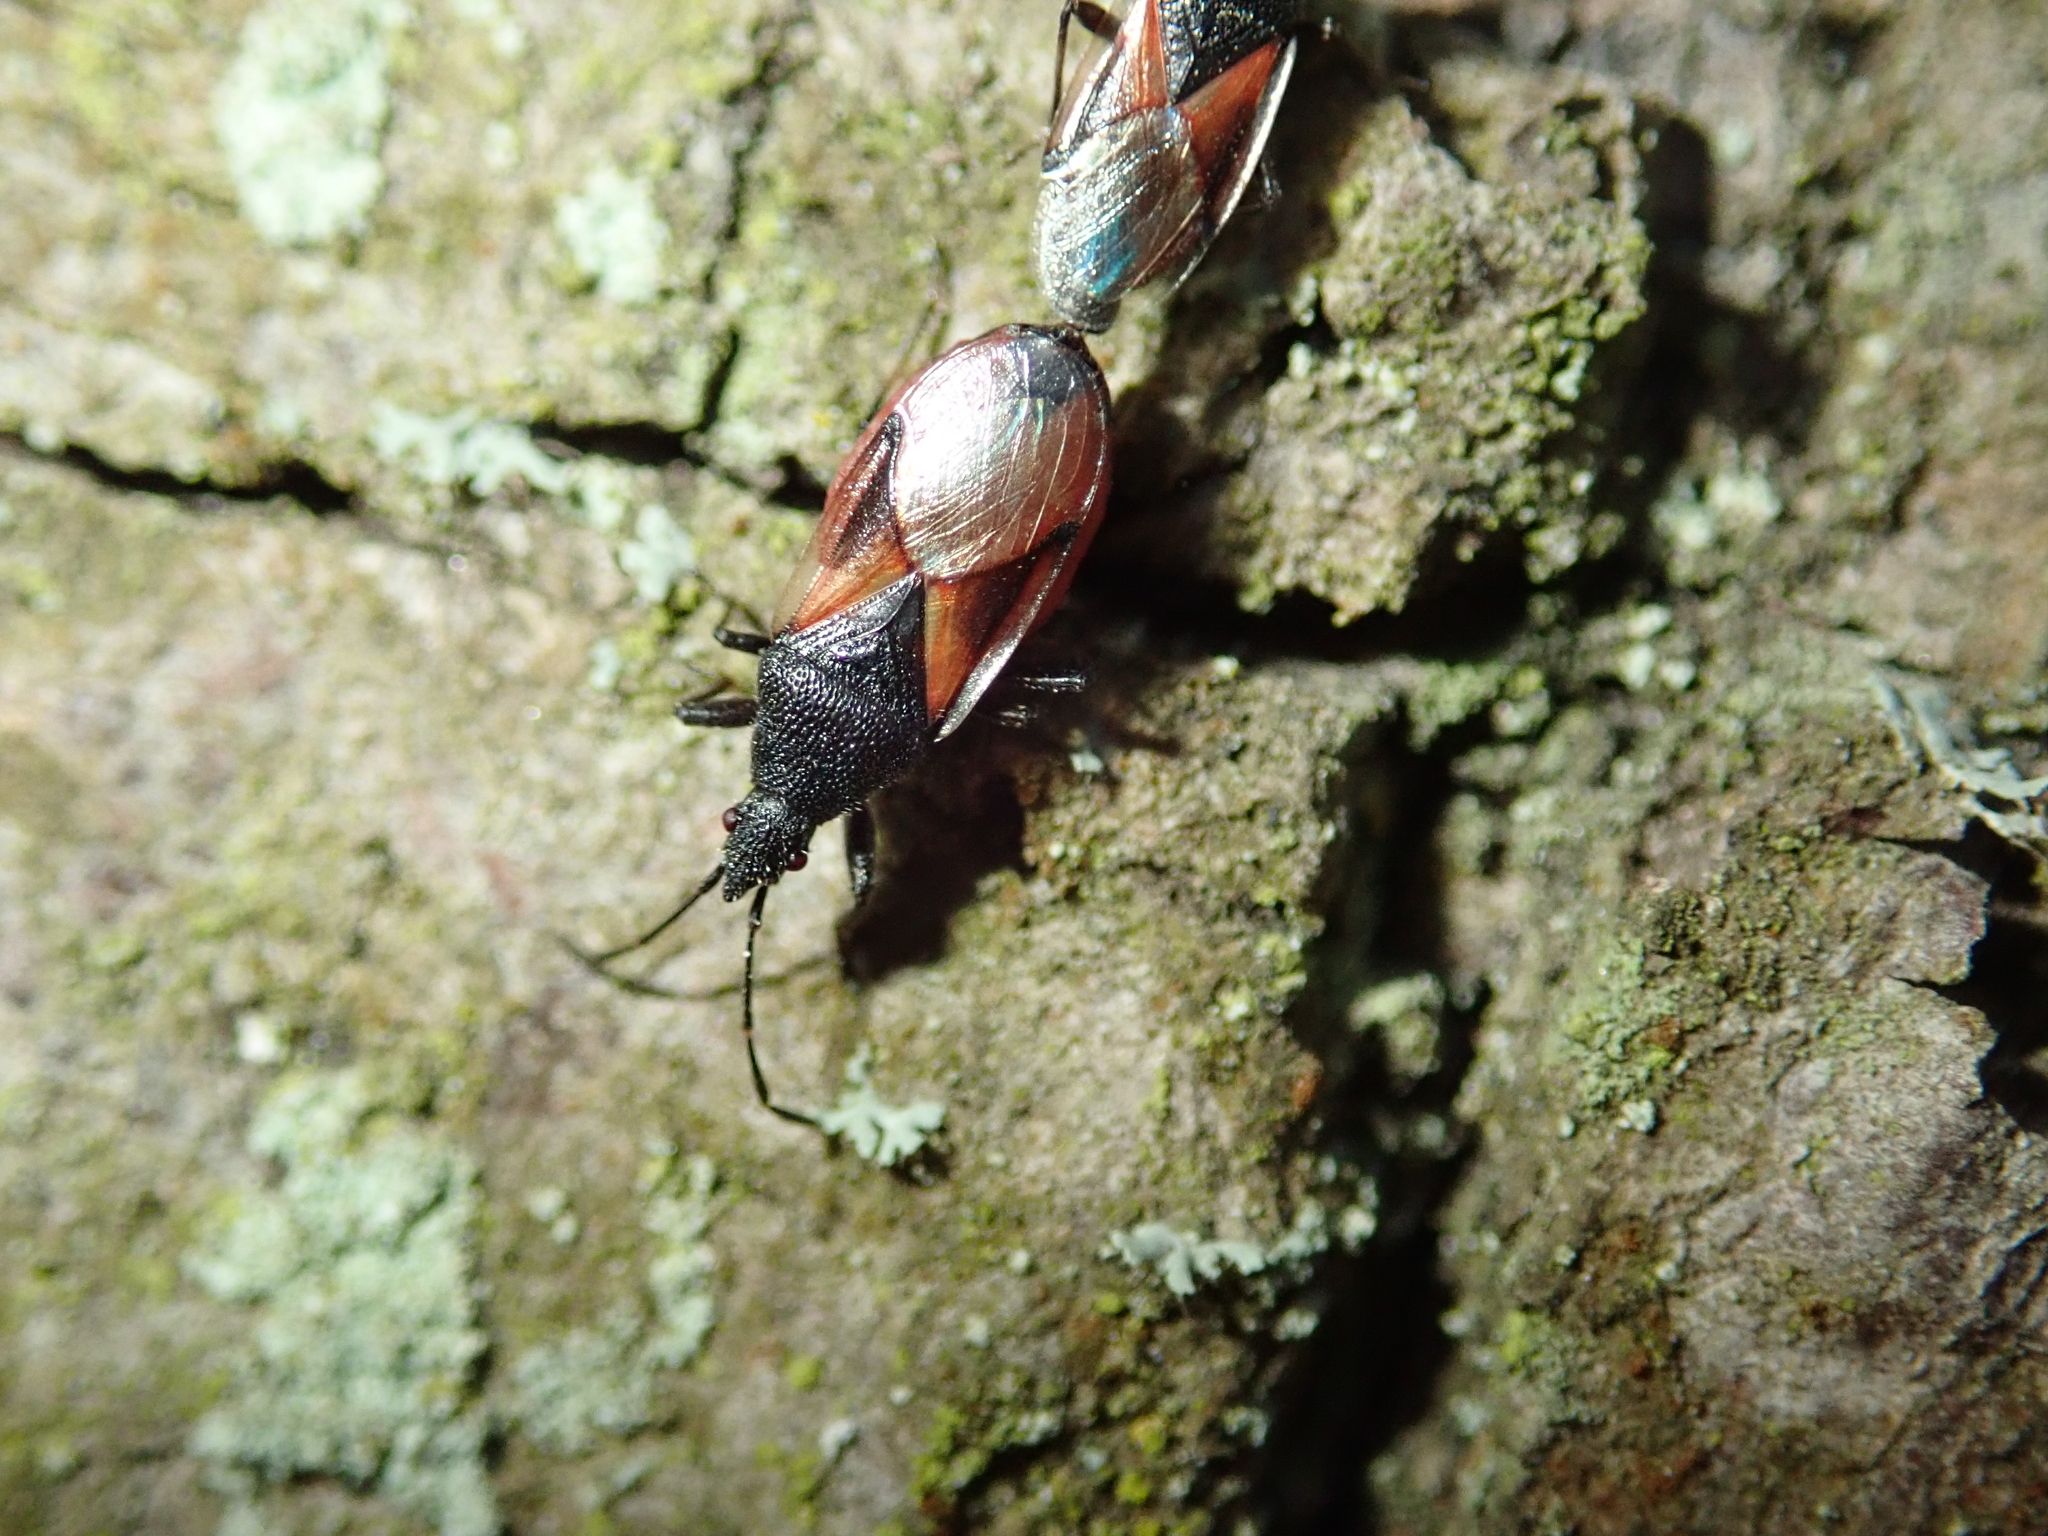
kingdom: Animalia
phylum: Arthropoda
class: Insecta
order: Hemiptera
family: Oxycarenidae
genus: Oxycarenus
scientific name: Oxycarenus lavaterae
